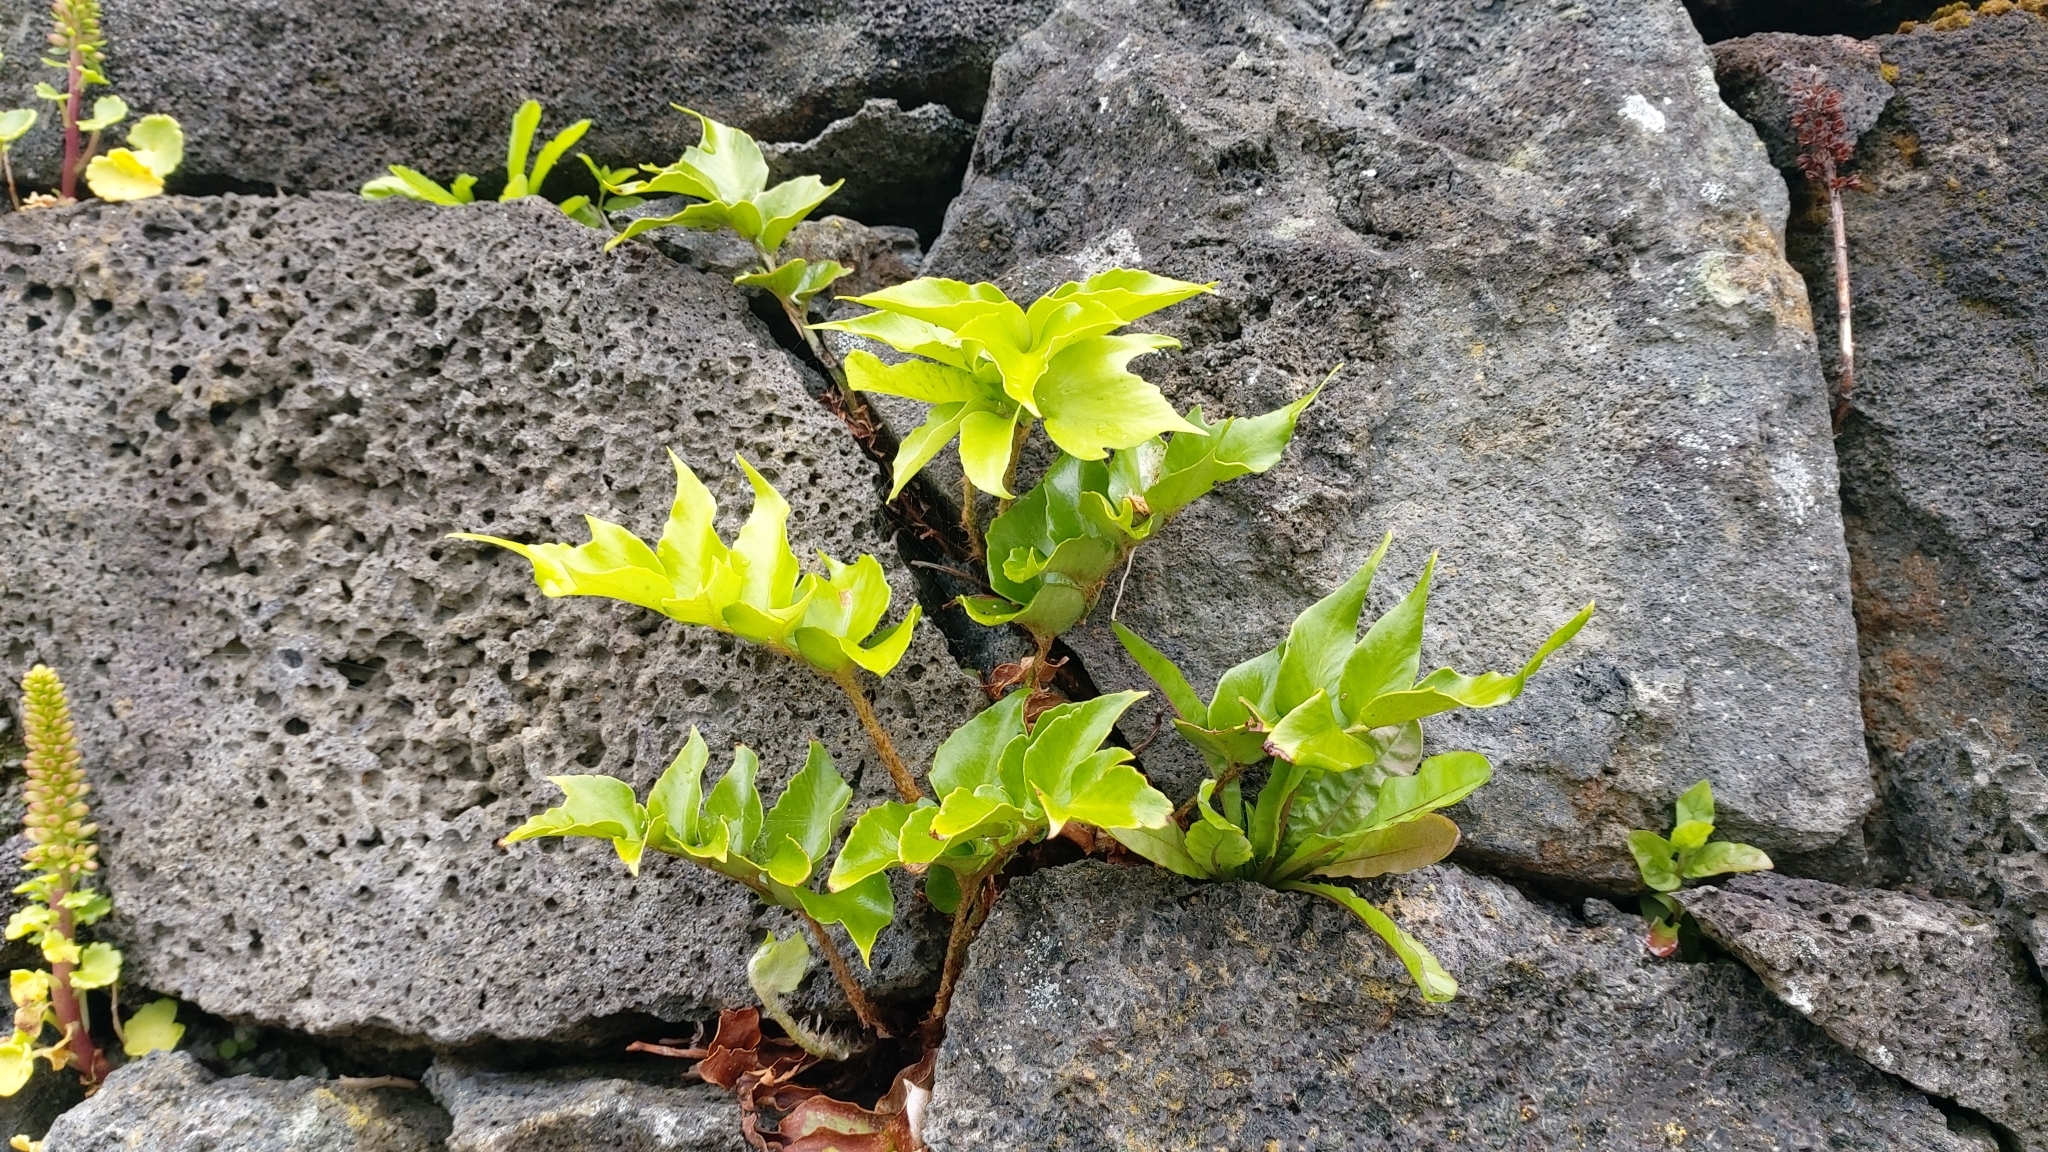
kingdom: Plantae
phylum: Tracheophyta
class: Polypodiopsida
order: Polypodiales
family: Dryopteridaceae
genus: Cyrtomium
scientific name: Cyrtomium falcatum
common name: House holly-fern
